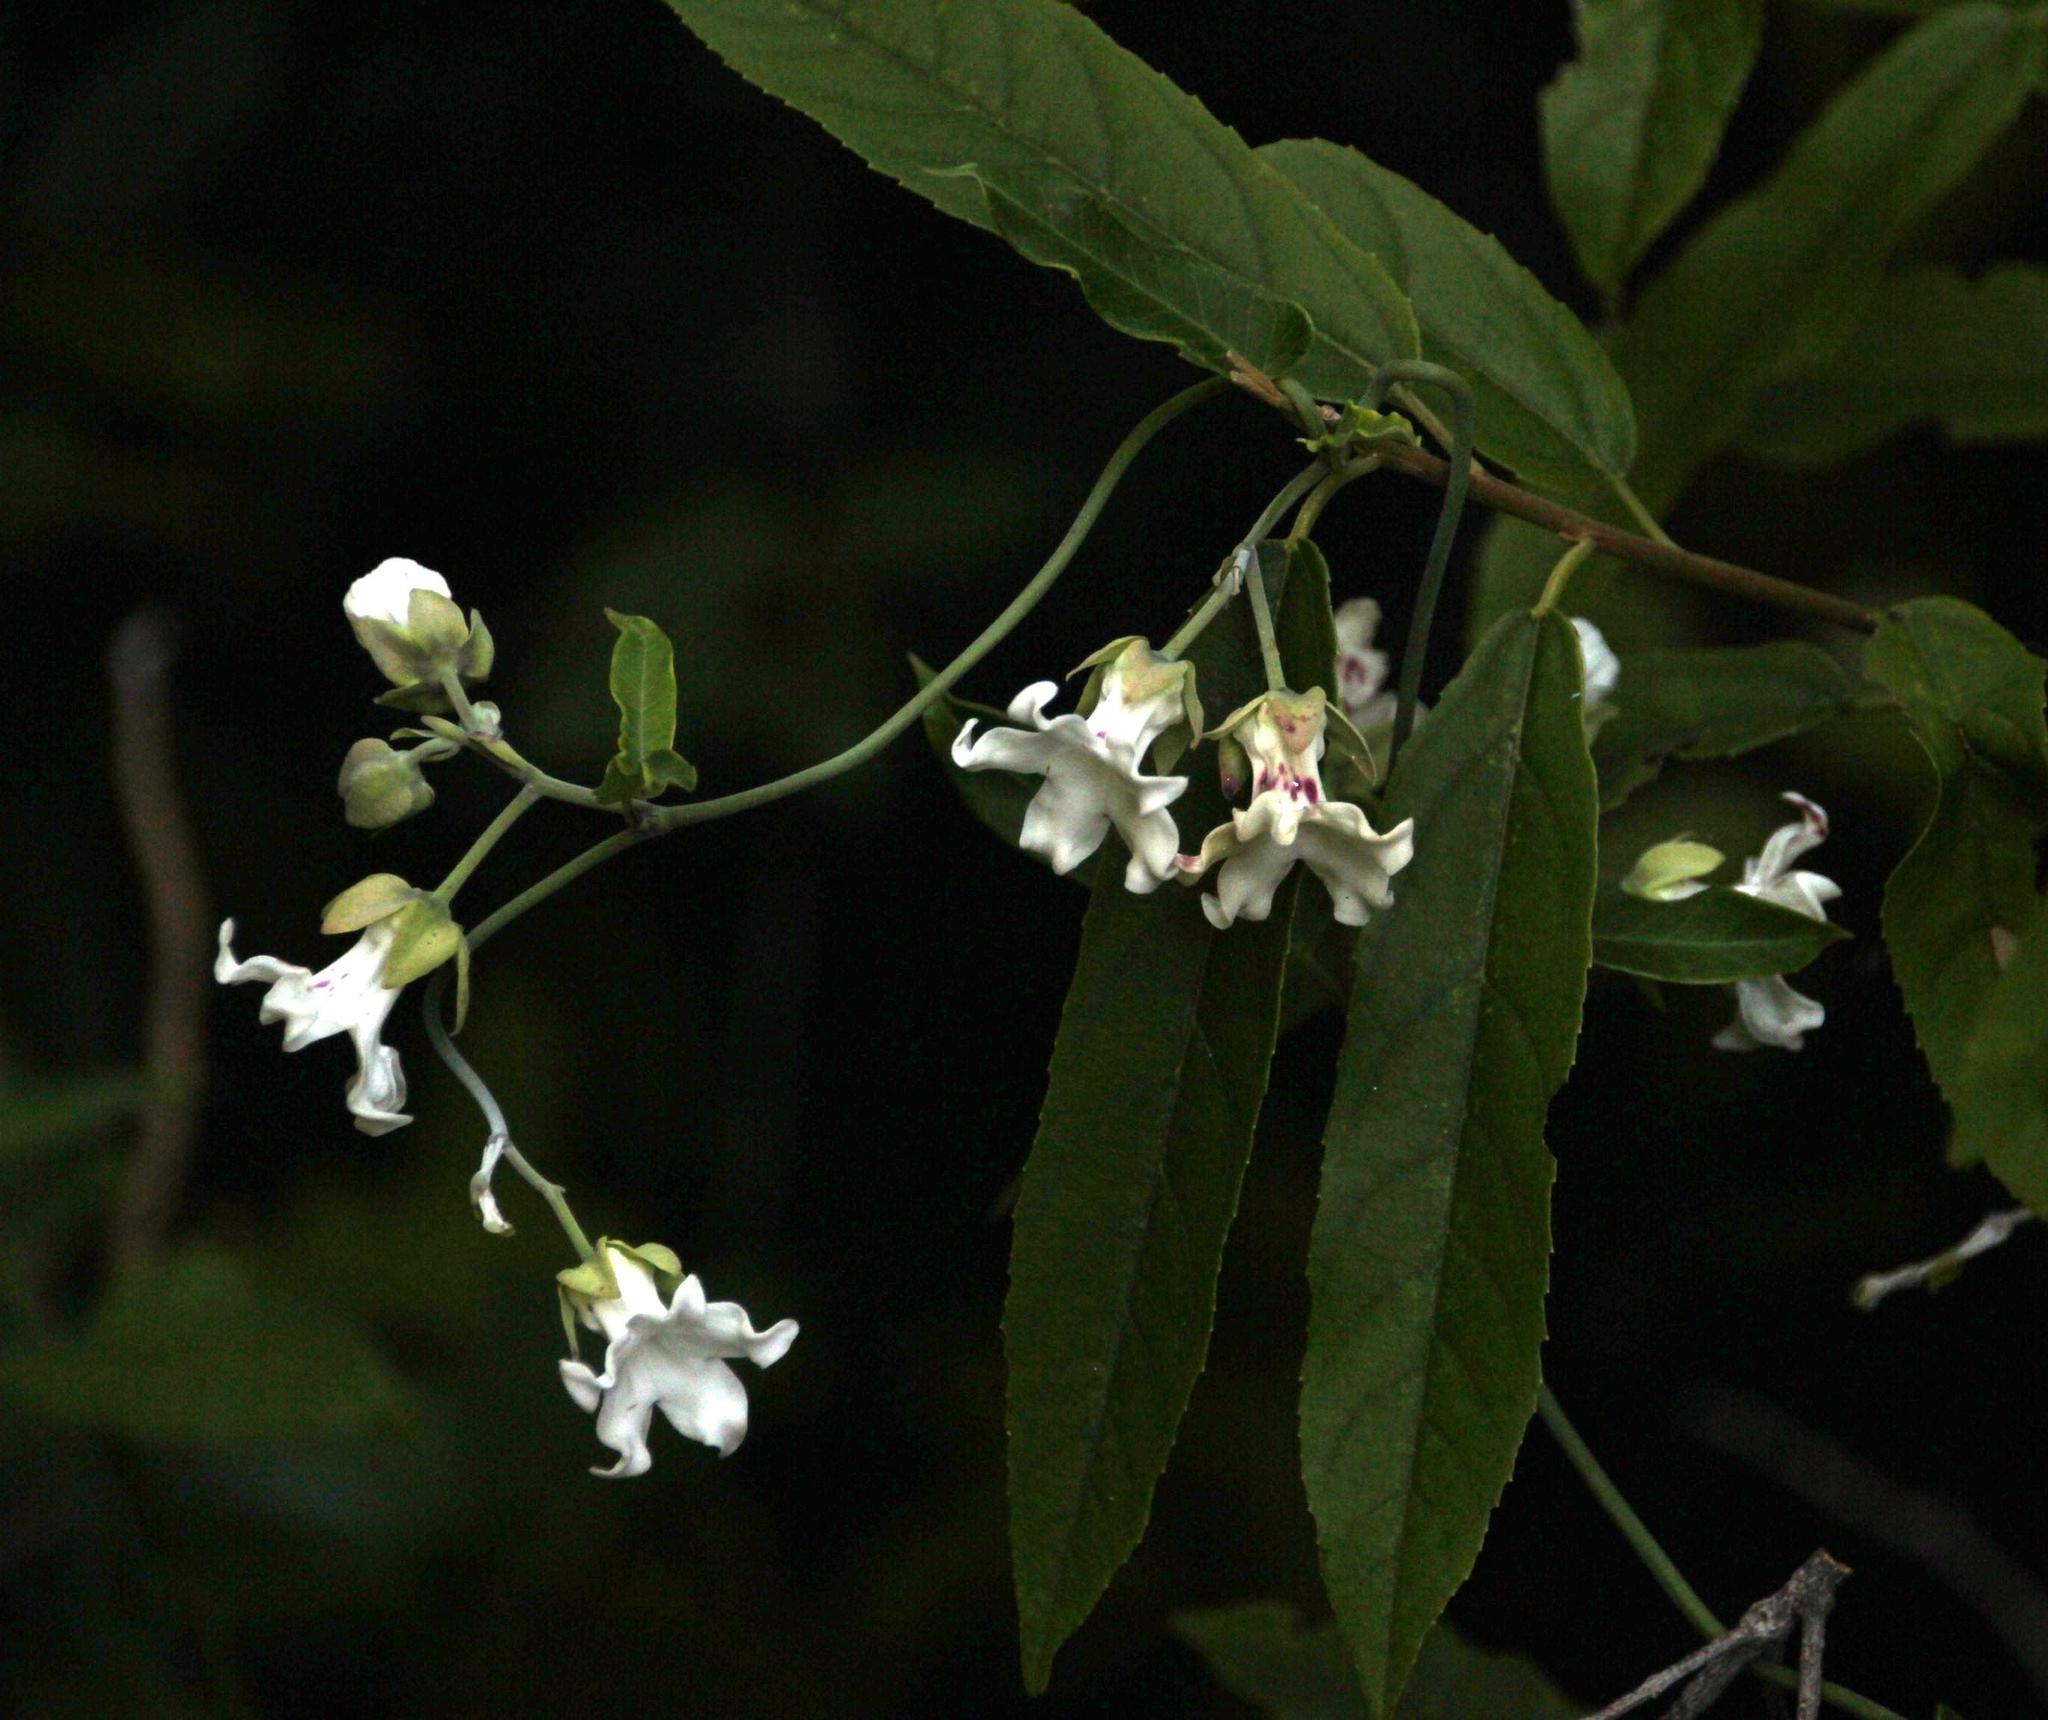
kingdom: Plantae
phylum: Tracheophyta
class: Magnoliopsida
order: Gentianales
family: Apocynaceae
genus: Araujia
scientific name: Araujia sericifera
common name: White bladderflower
